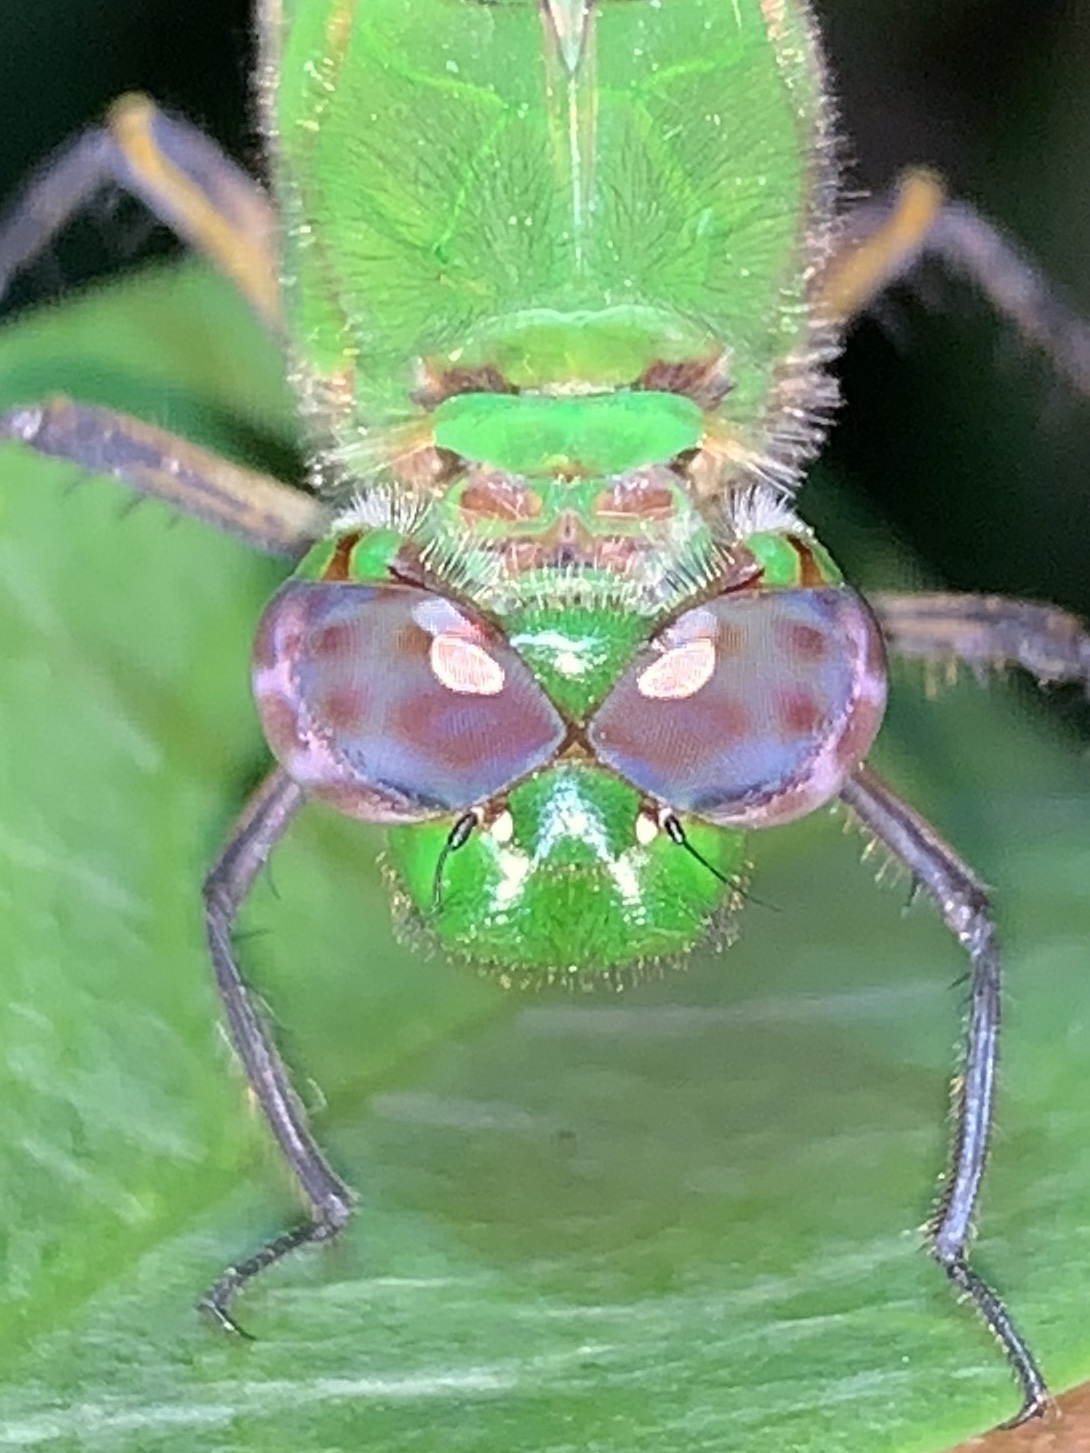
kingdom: Animalia
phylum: Arthropoda
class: Insecta
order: Odonata
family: Libellulidae
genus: Erythemis
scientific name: Erythemis vesiculosa
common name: Great pondhawk
